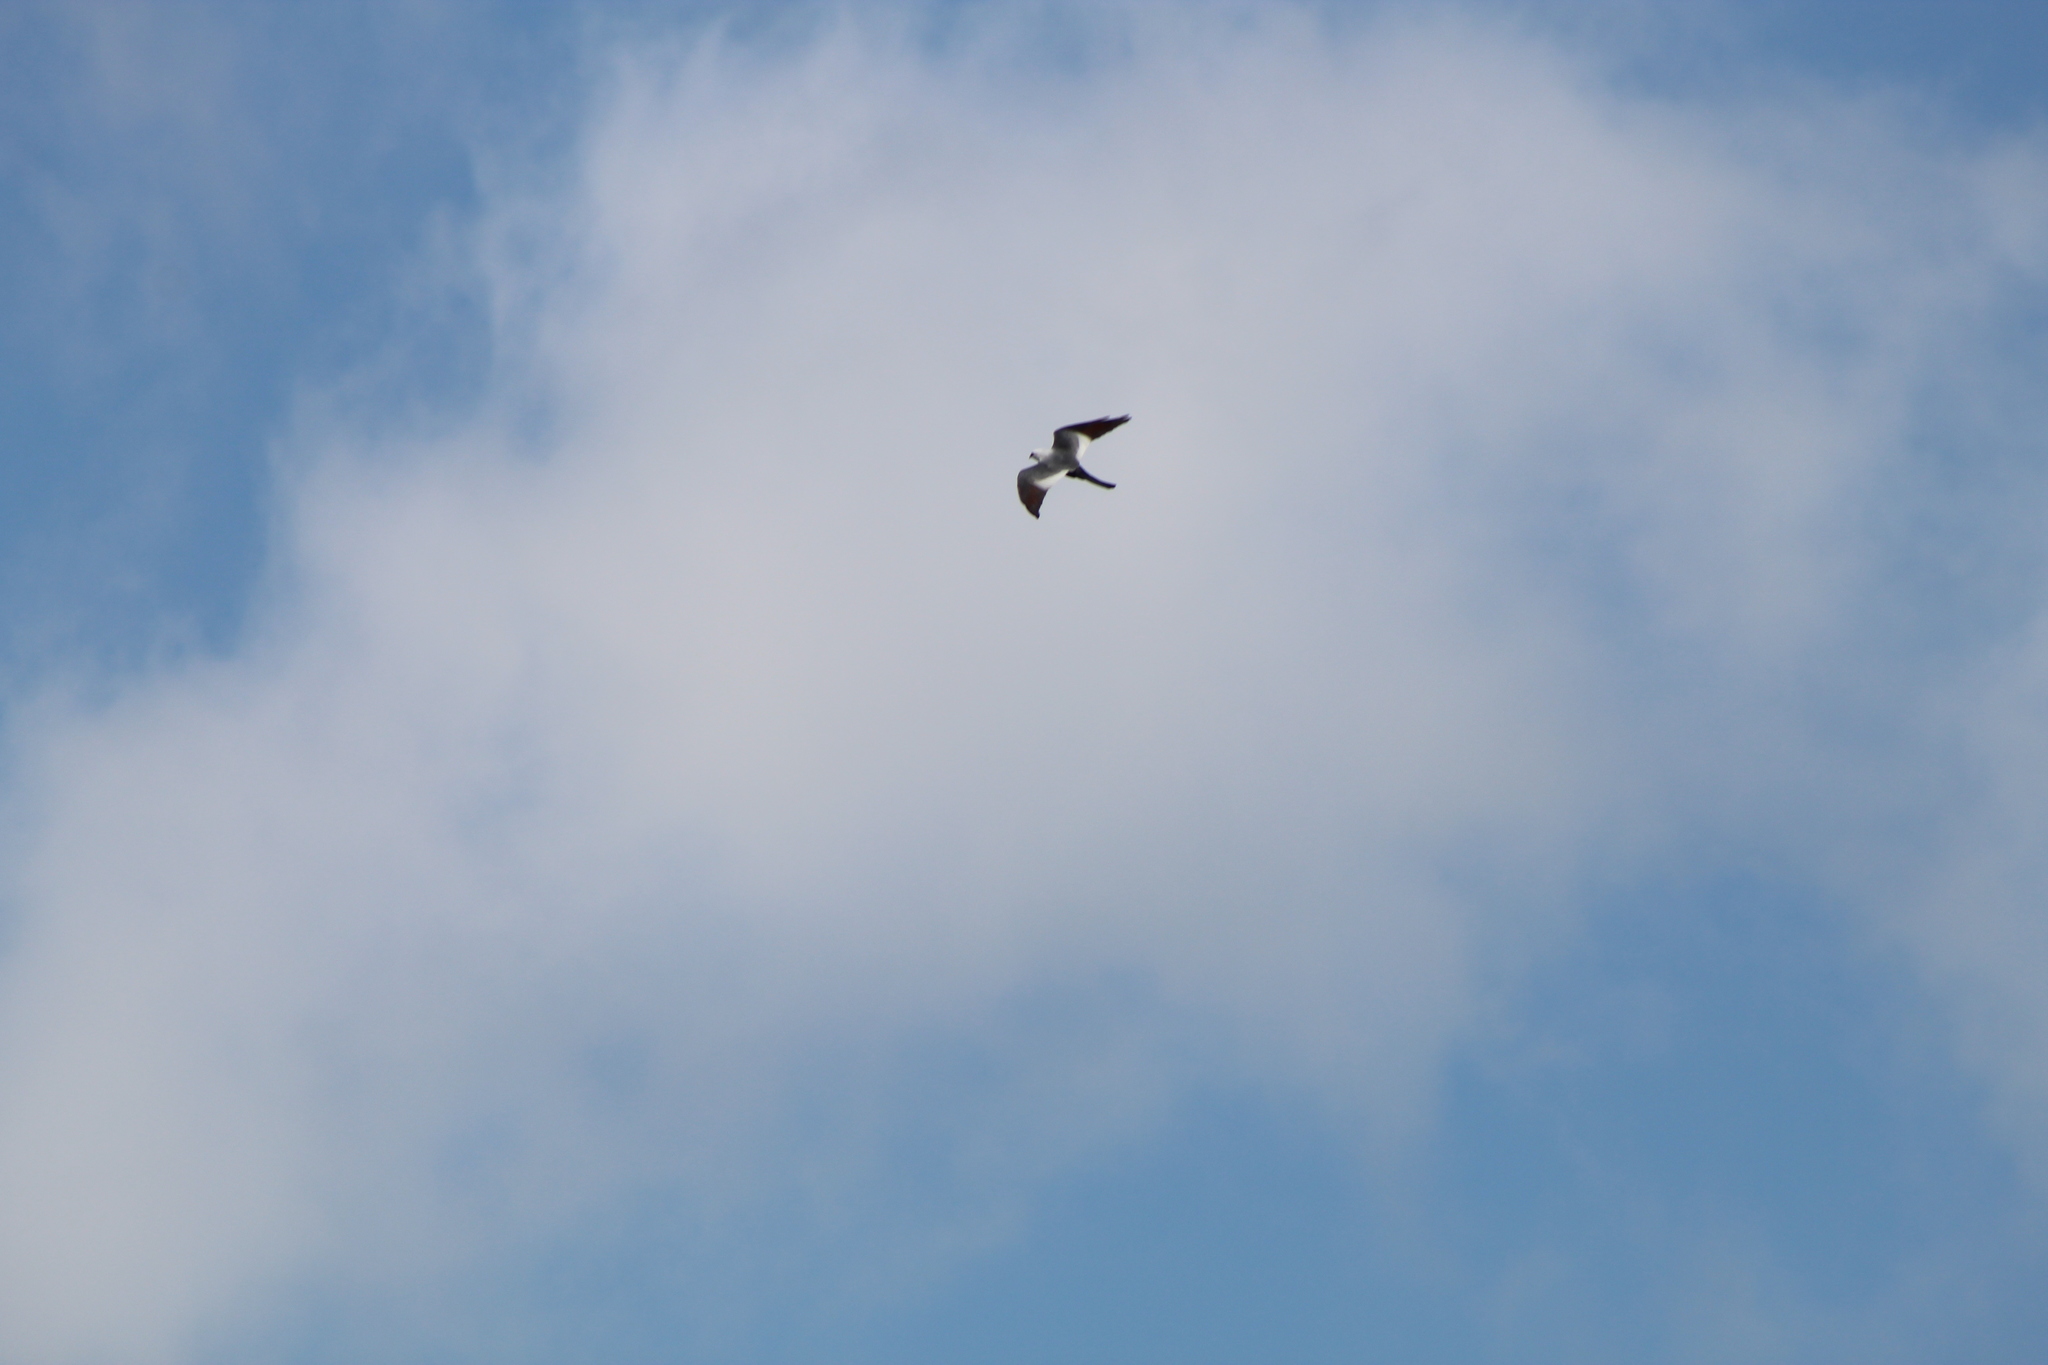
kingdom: Animalia
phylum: Chordata
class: Aves
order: Accipitriformes
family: Accipitridae
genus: Ictinia
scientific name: Ictinia mississippiensis
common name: Mississippi kite
